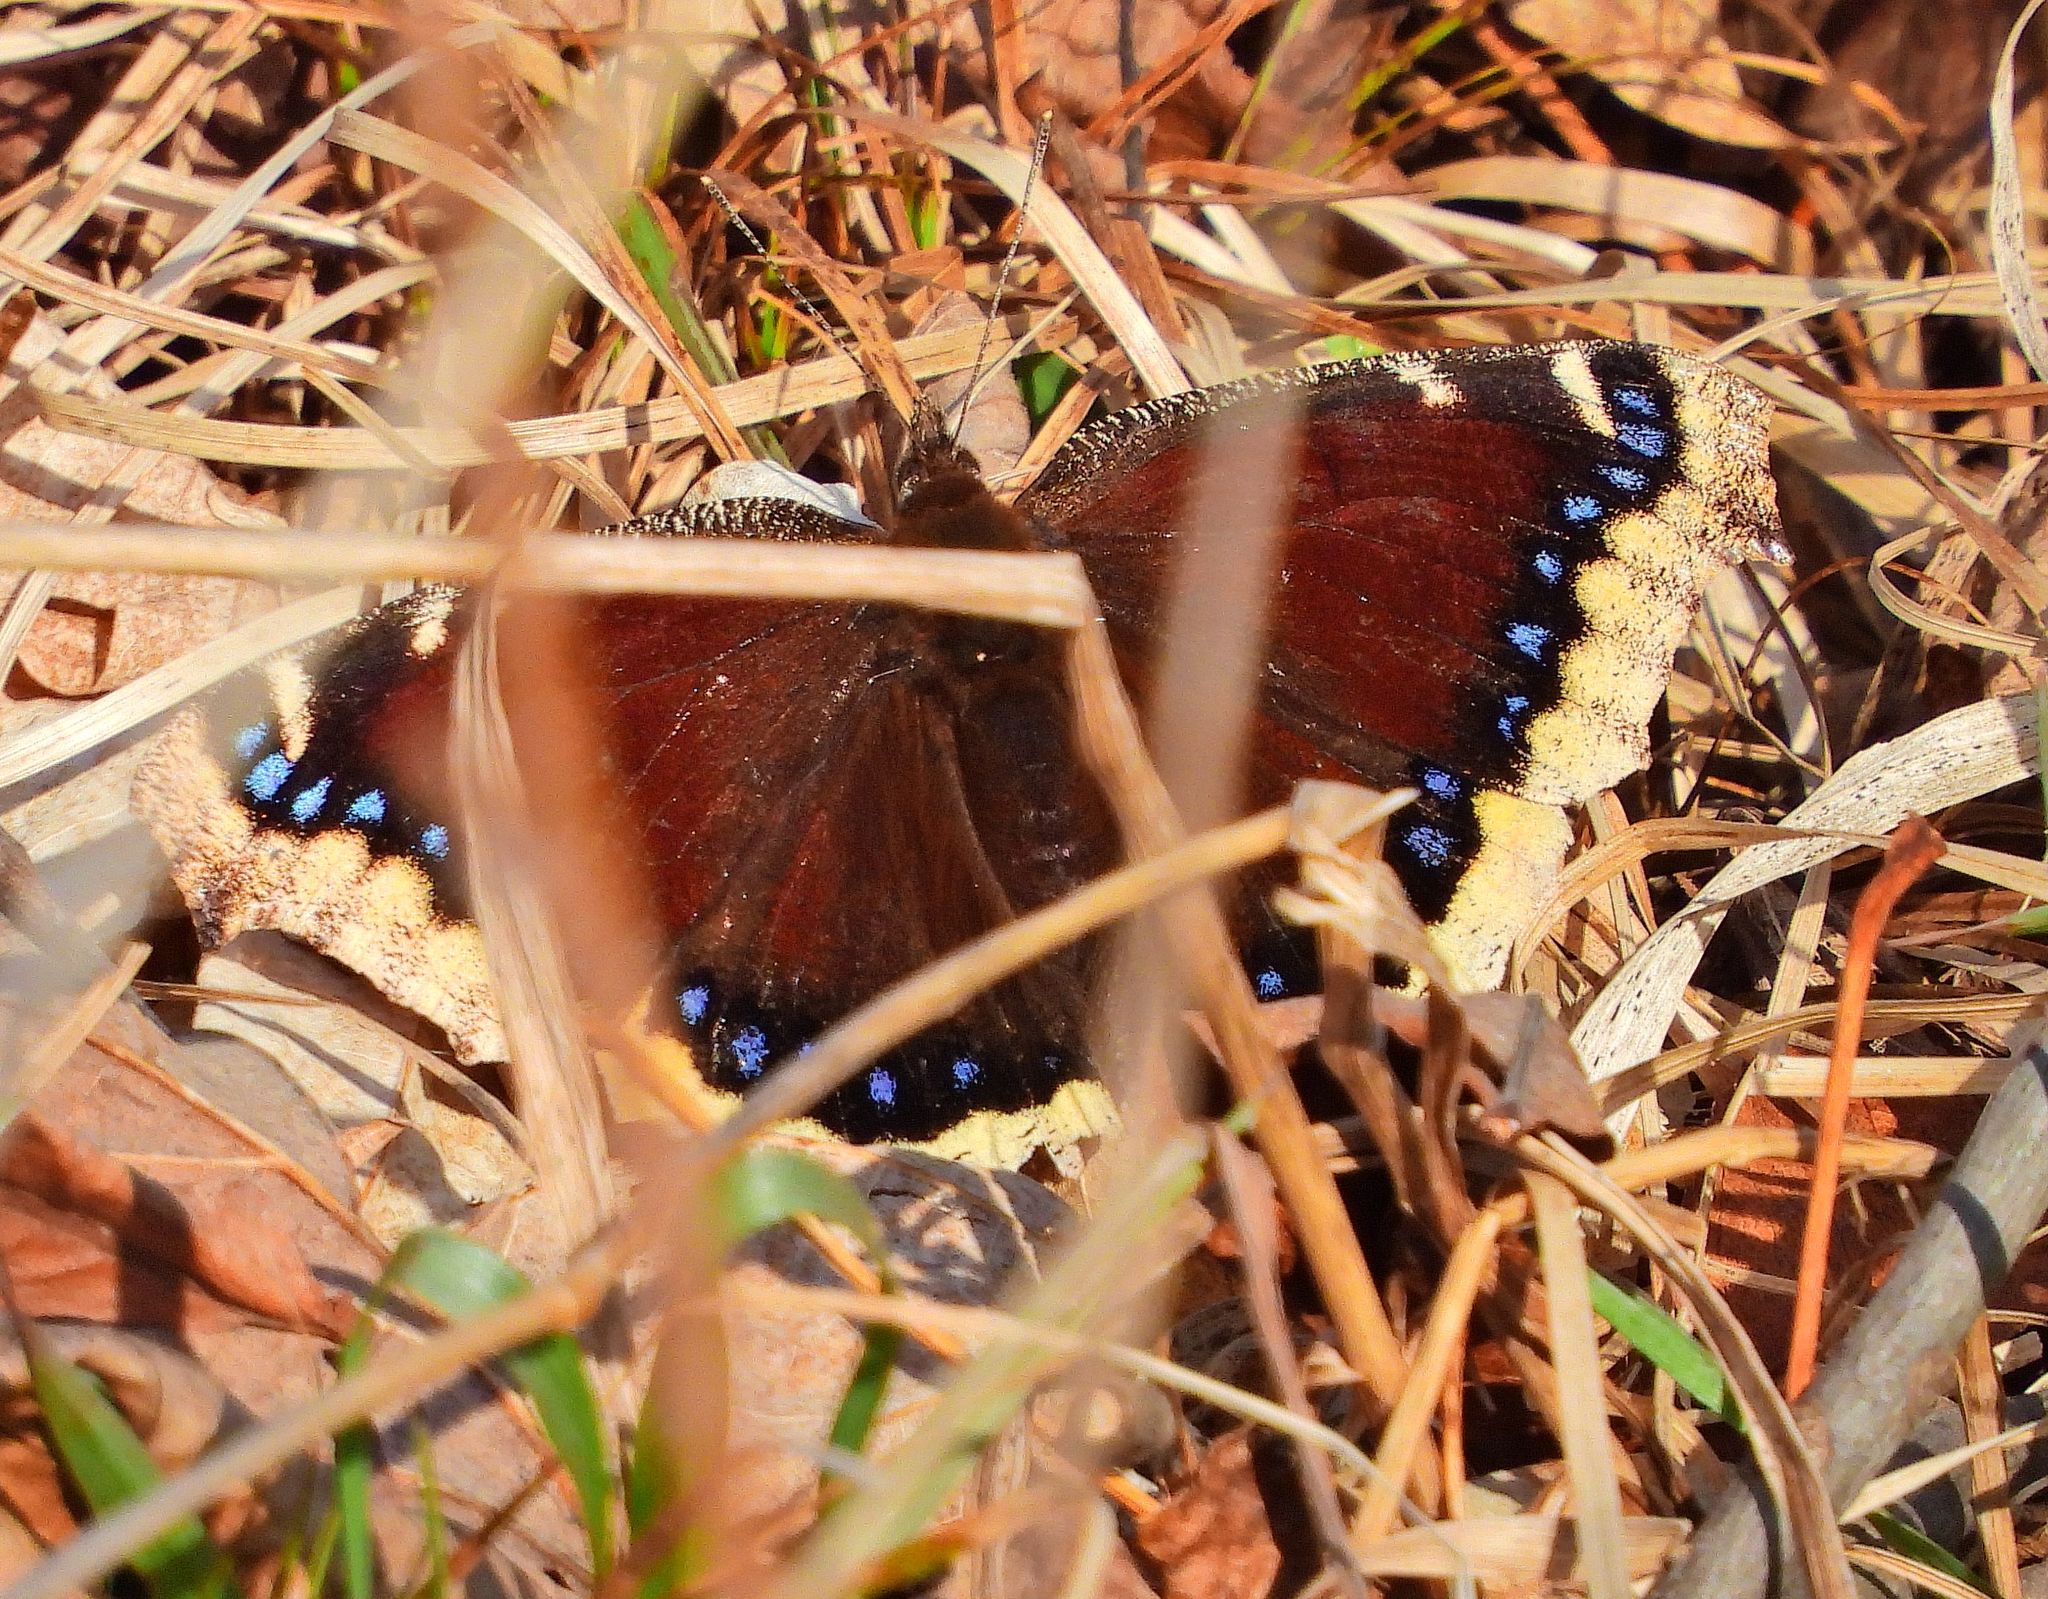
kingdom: Animalia
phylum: Arthropoda
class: Insecta
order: Lepidoptera
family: Nymphalidae
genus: Nymphalis
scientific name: Nymphalis antiopa
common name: Camberwell beauty
